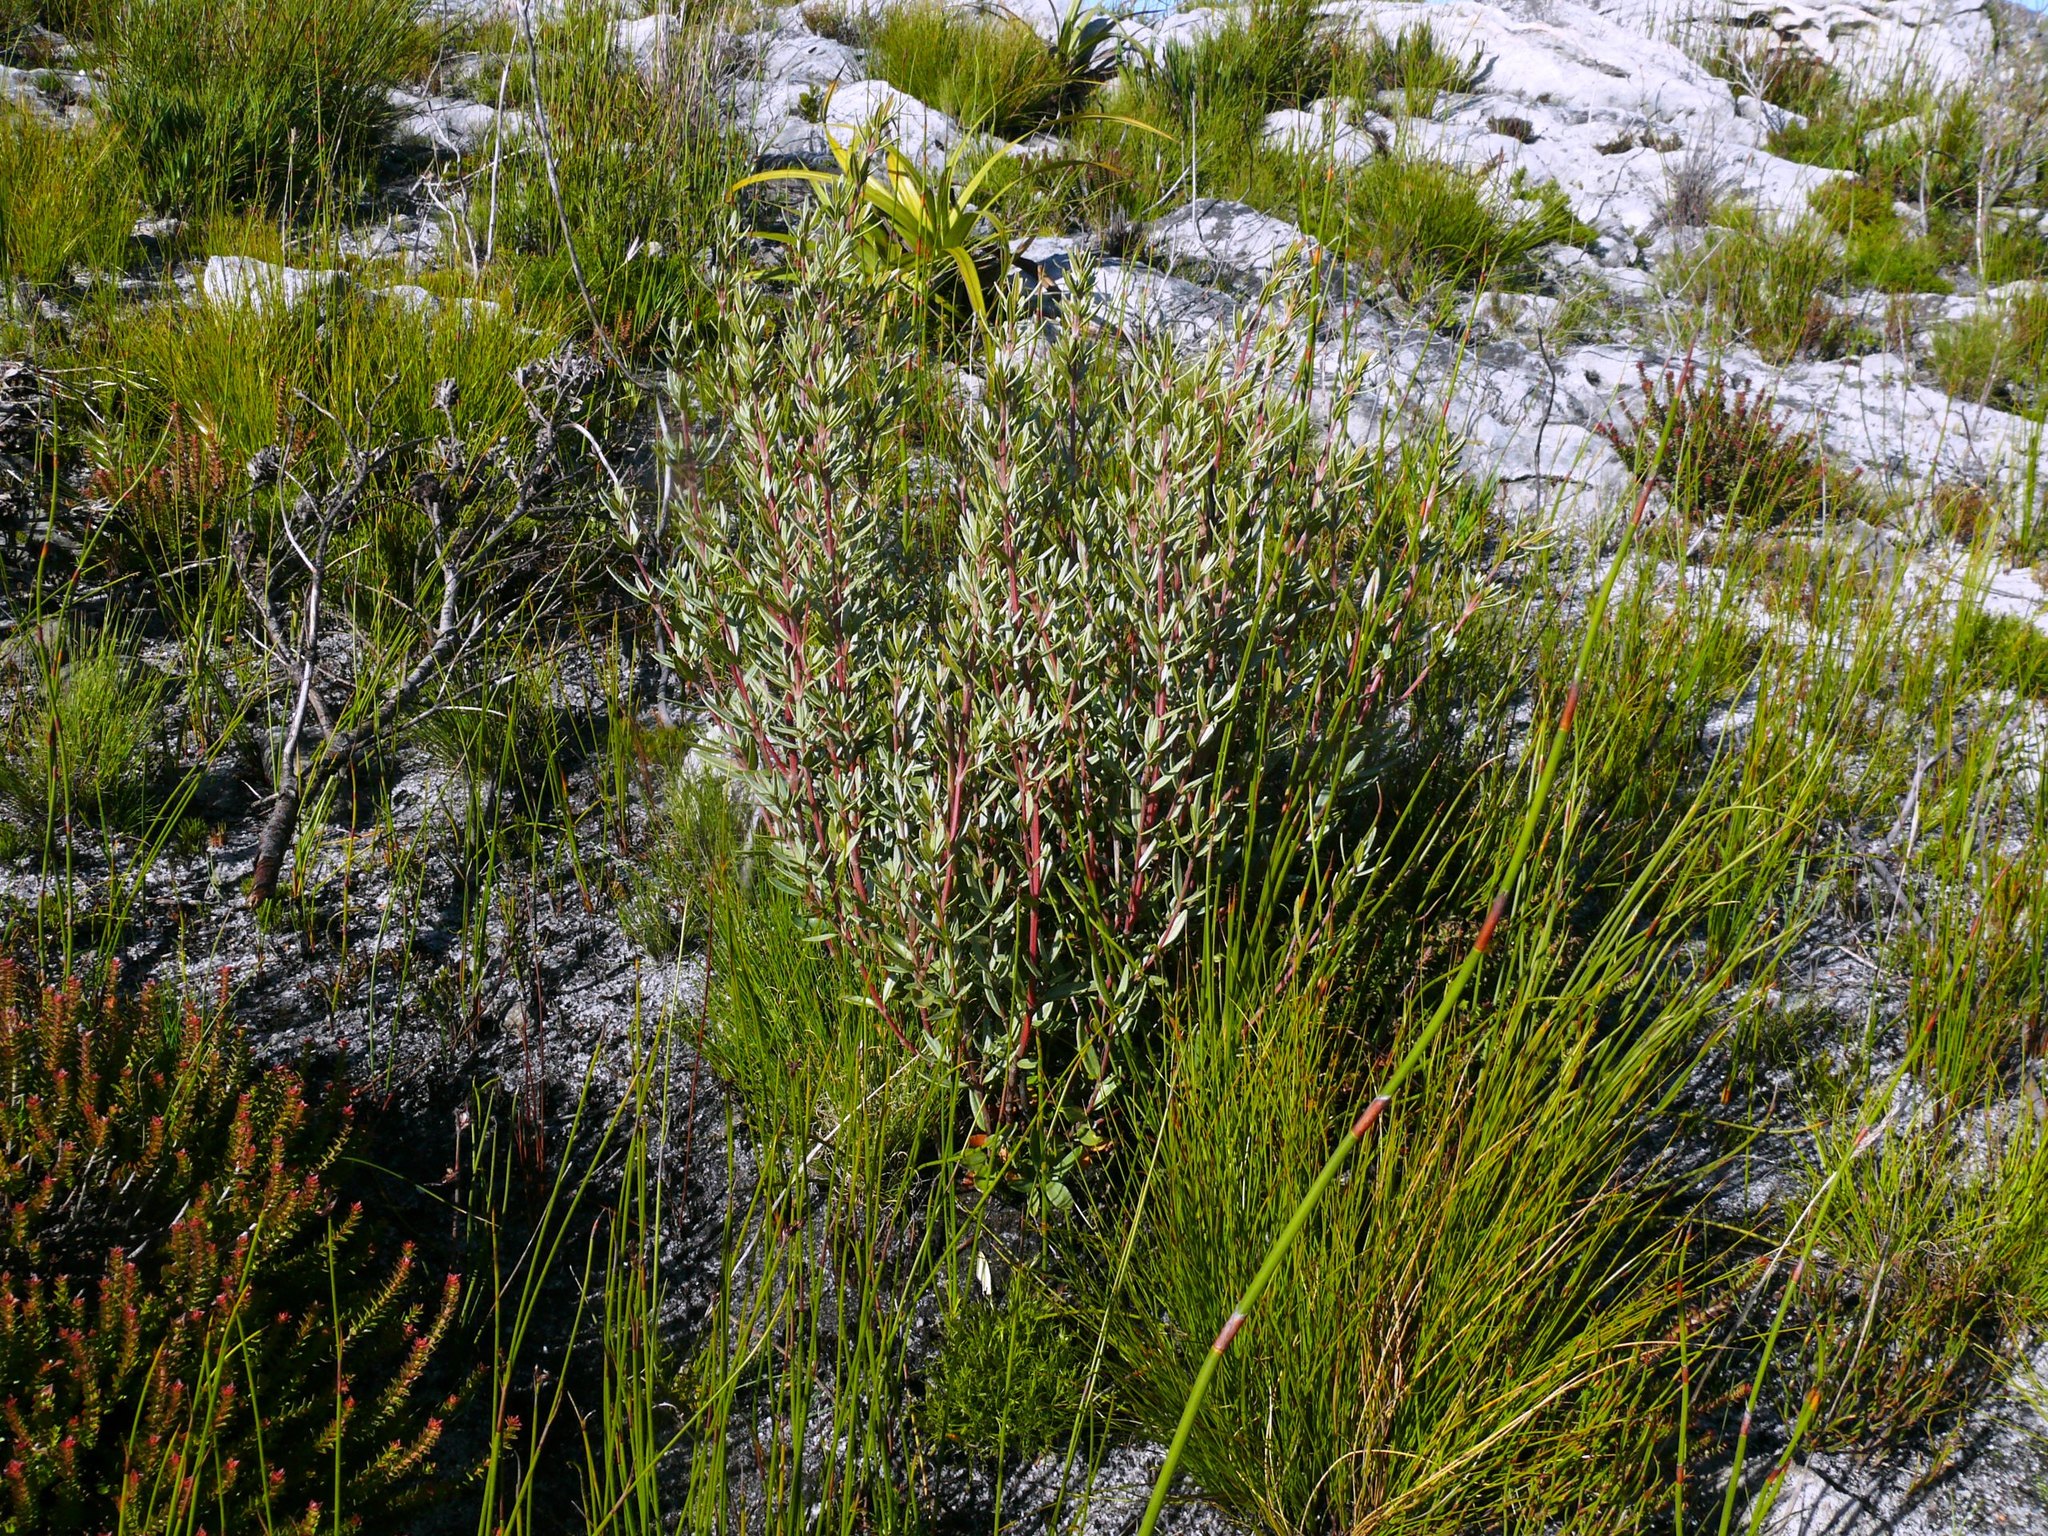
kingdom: Plantae
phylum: Tracheophyta
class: Magnoliopsida
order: Cornales
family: Grubbiaceae
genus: Grubbia
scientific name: Grubbia tomentosa
